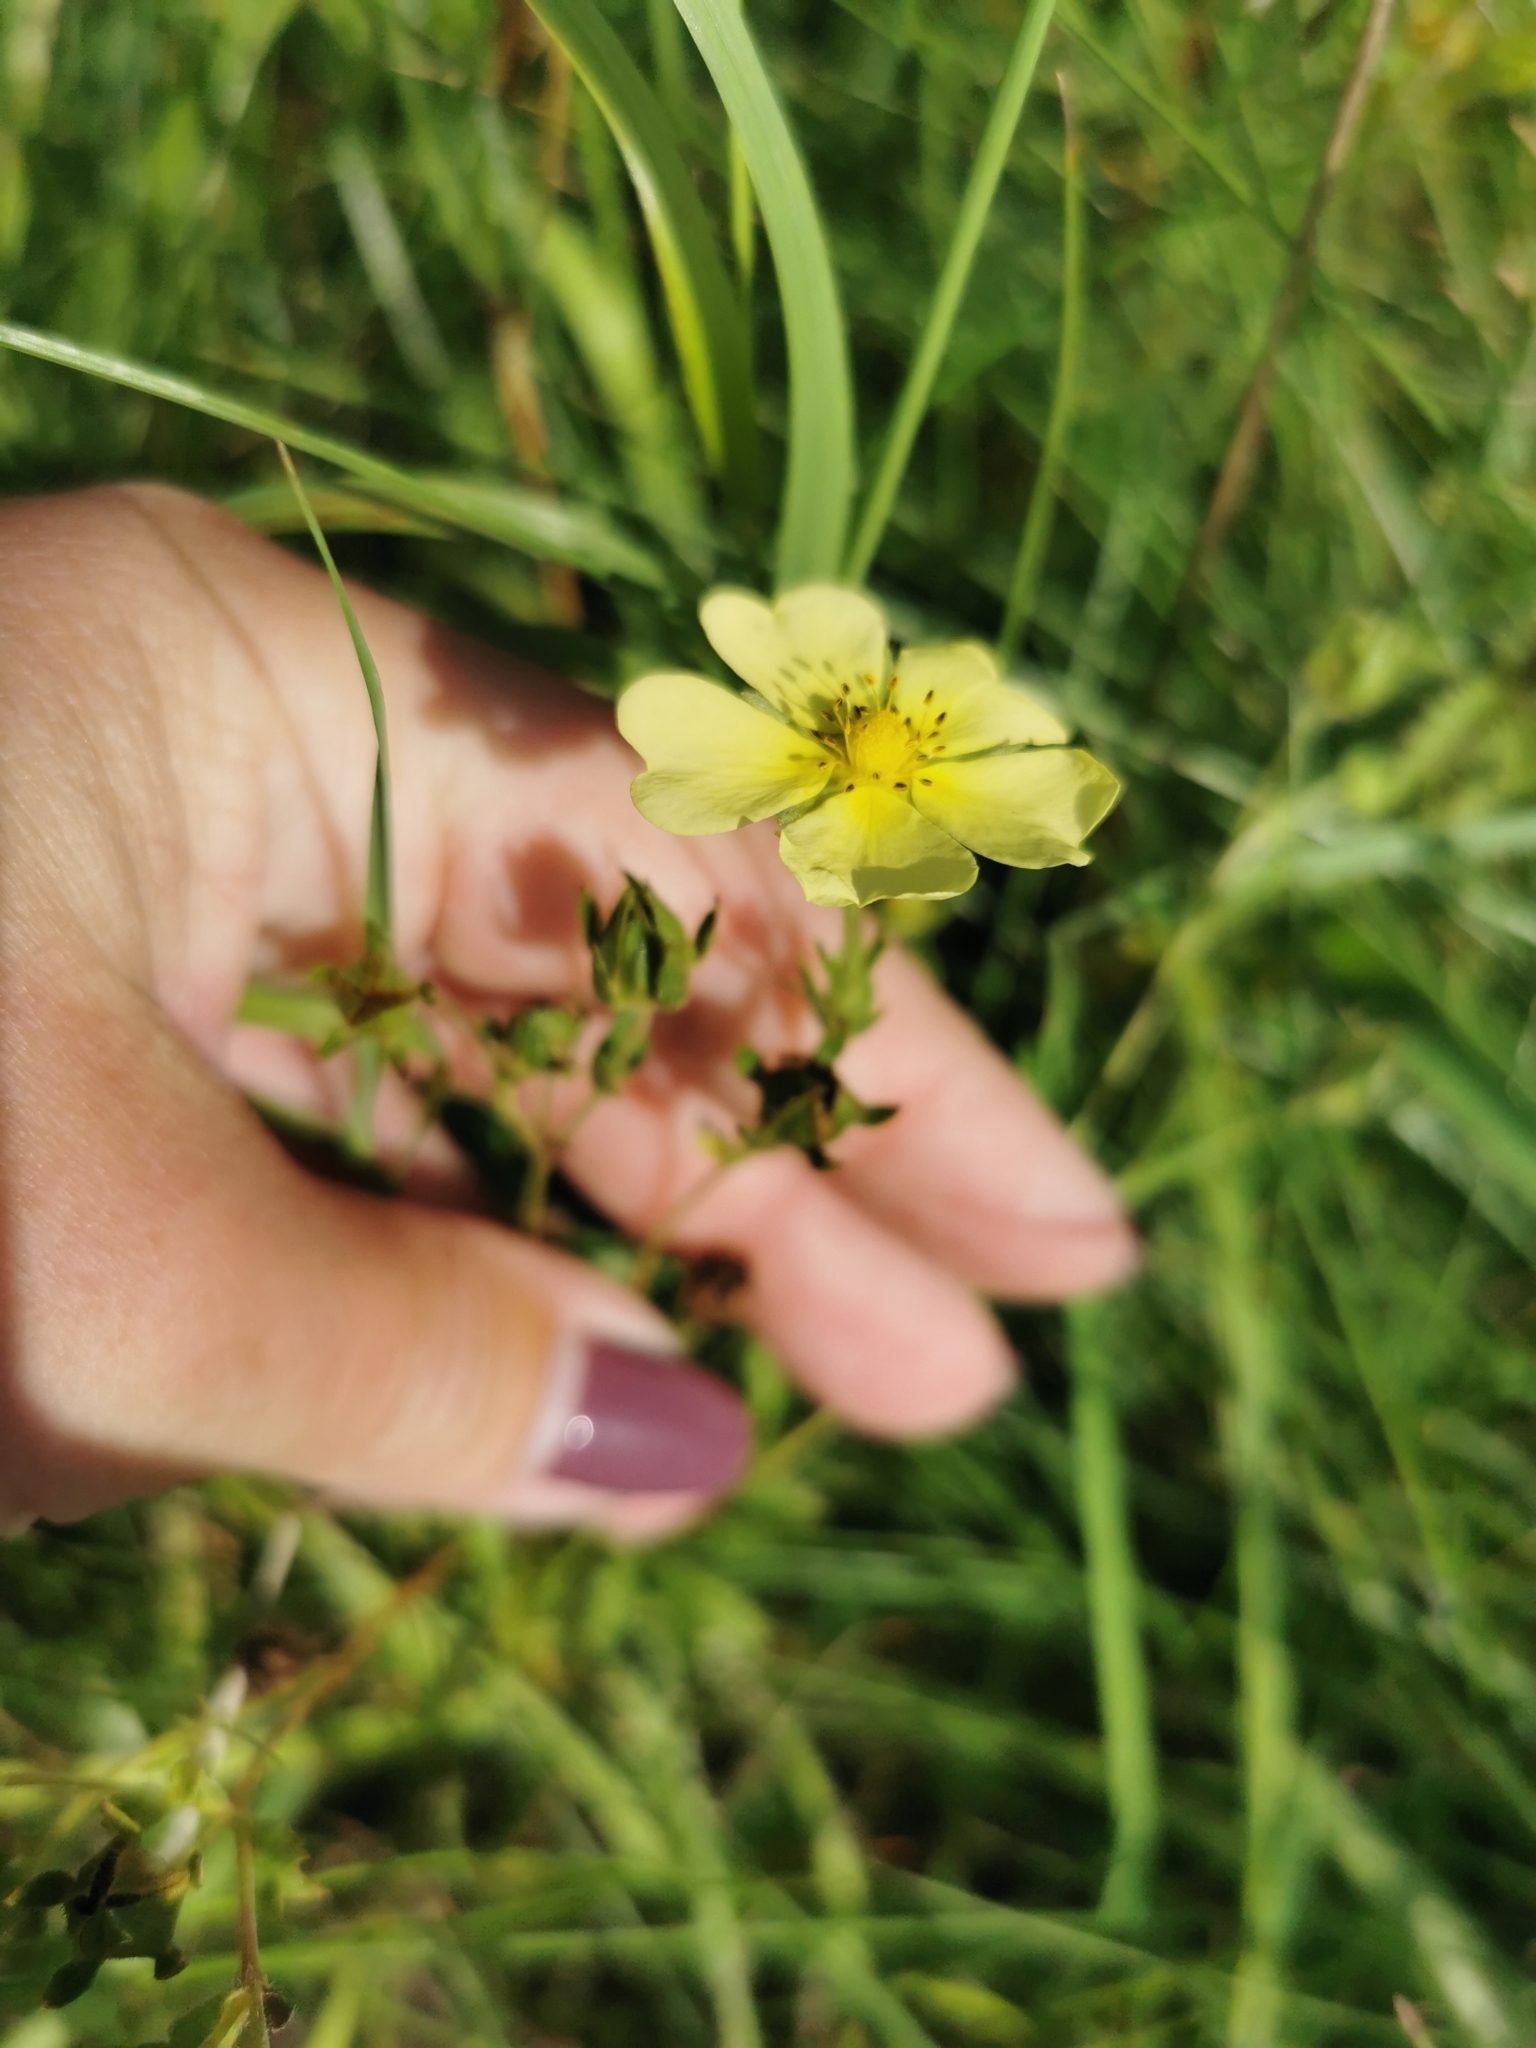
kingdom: Plantae
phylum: Tracheophyta
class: Magnoliopsida
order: Rosales
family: Rosaceae
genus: Potentilla
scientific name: Potentilla recta
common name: Sulphur cinquefoil
